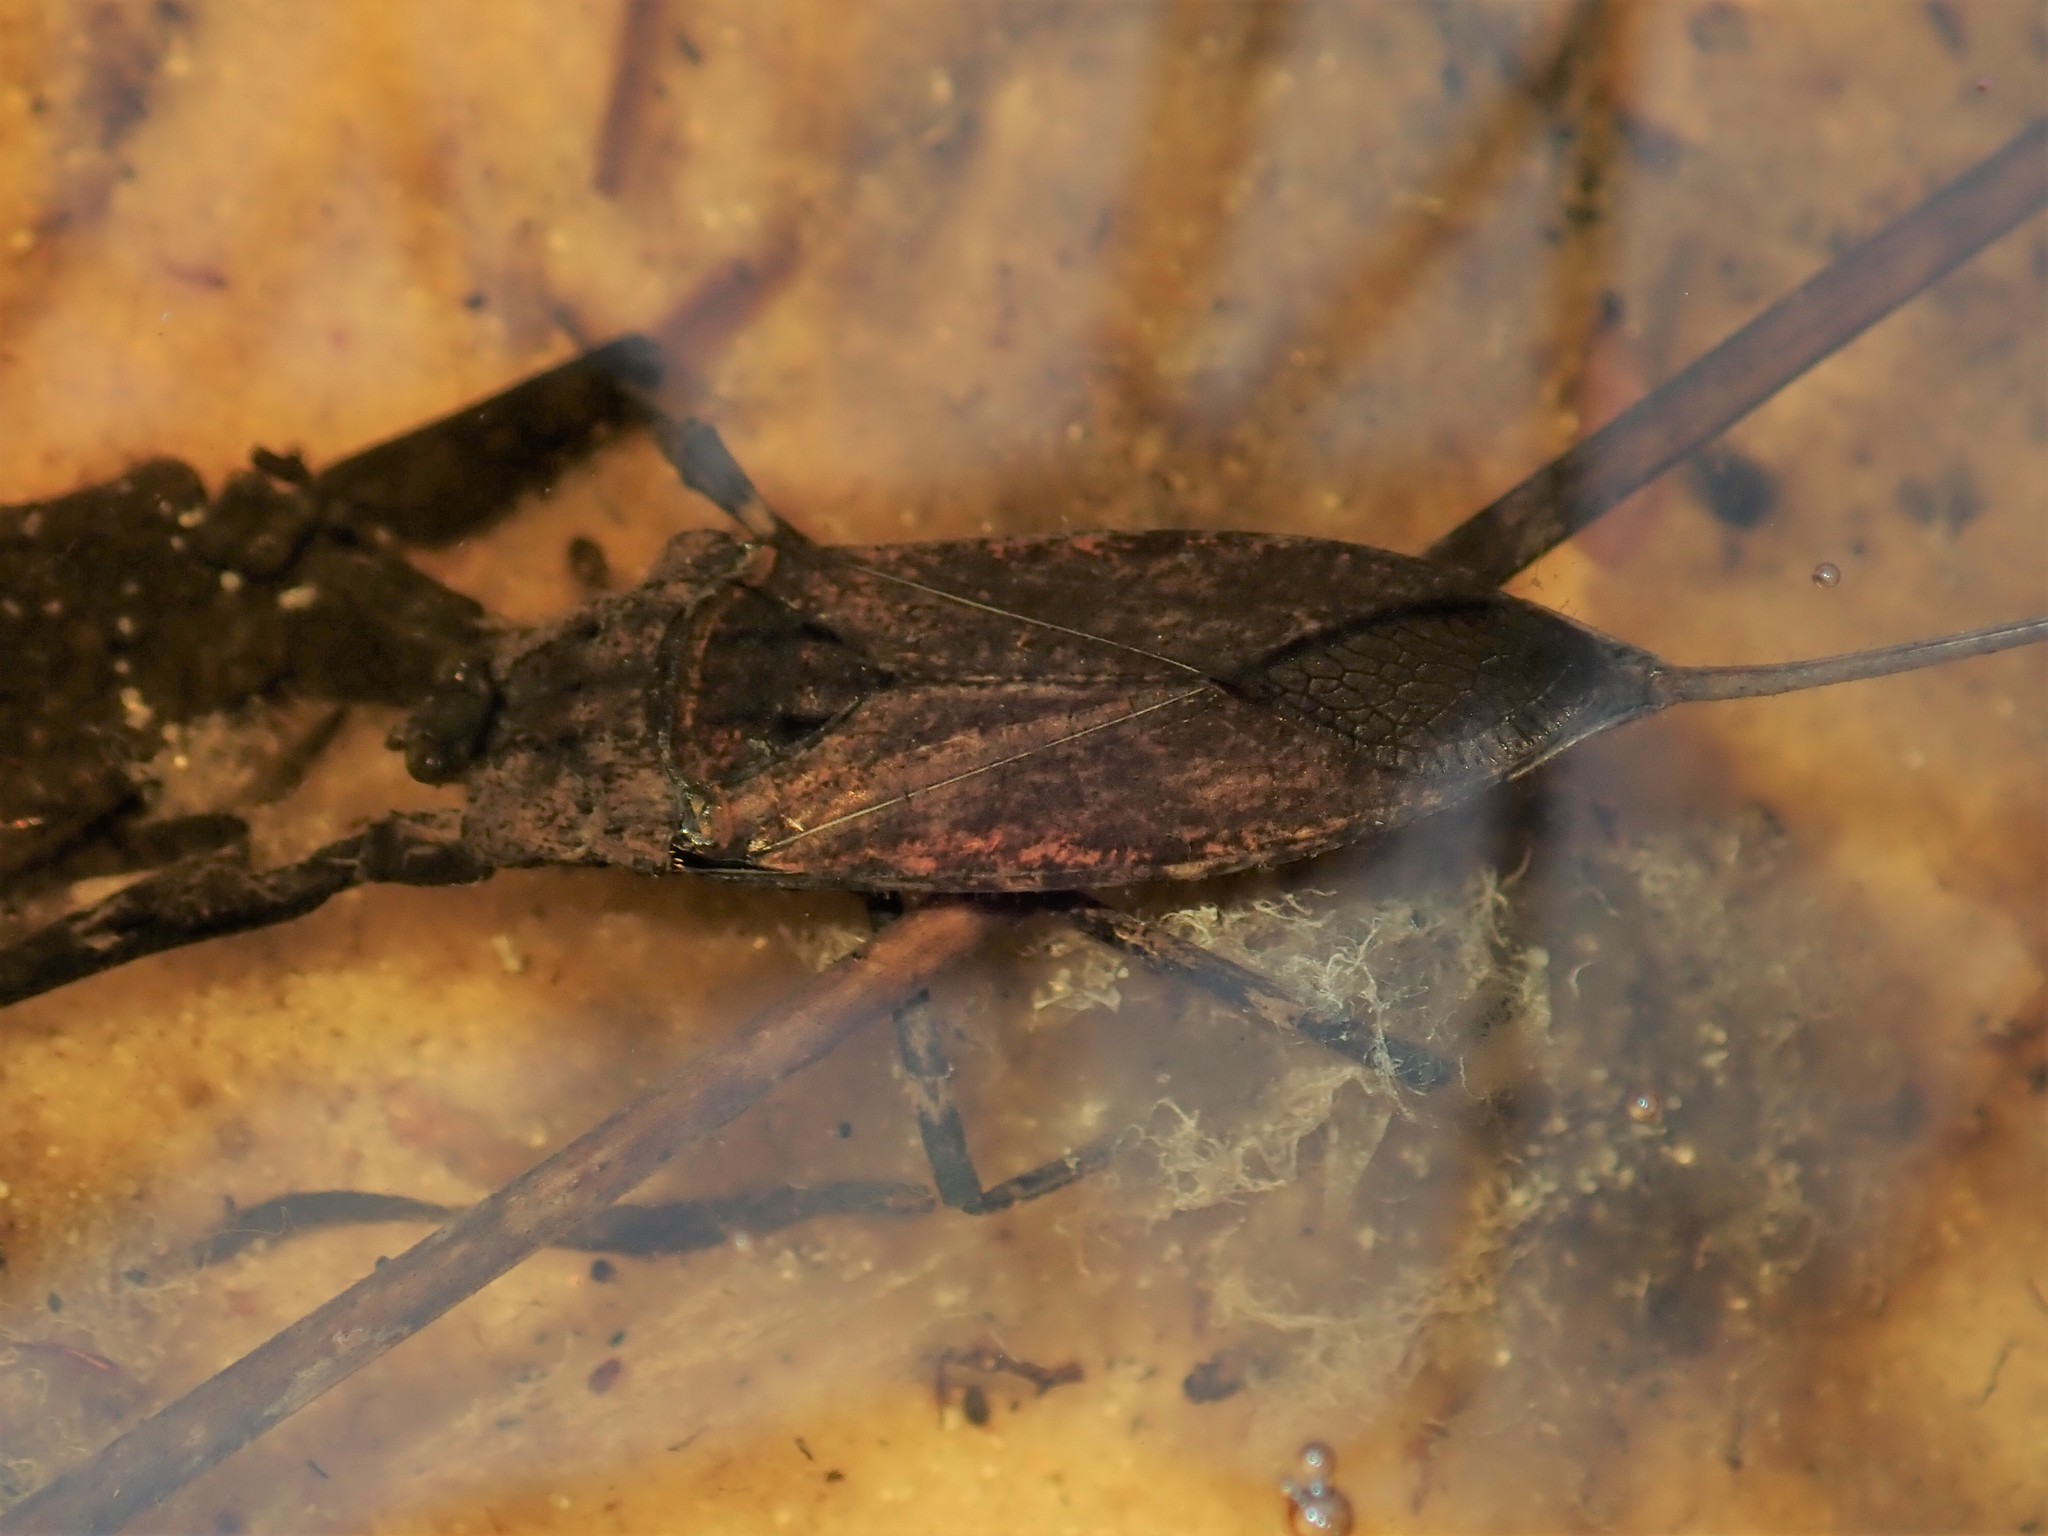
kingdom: Animalia
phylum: Arthropoda
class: Insecta
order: Hemiptera
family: Nepidae
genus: Laccotrephes
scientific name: Laccotrephes tristis
